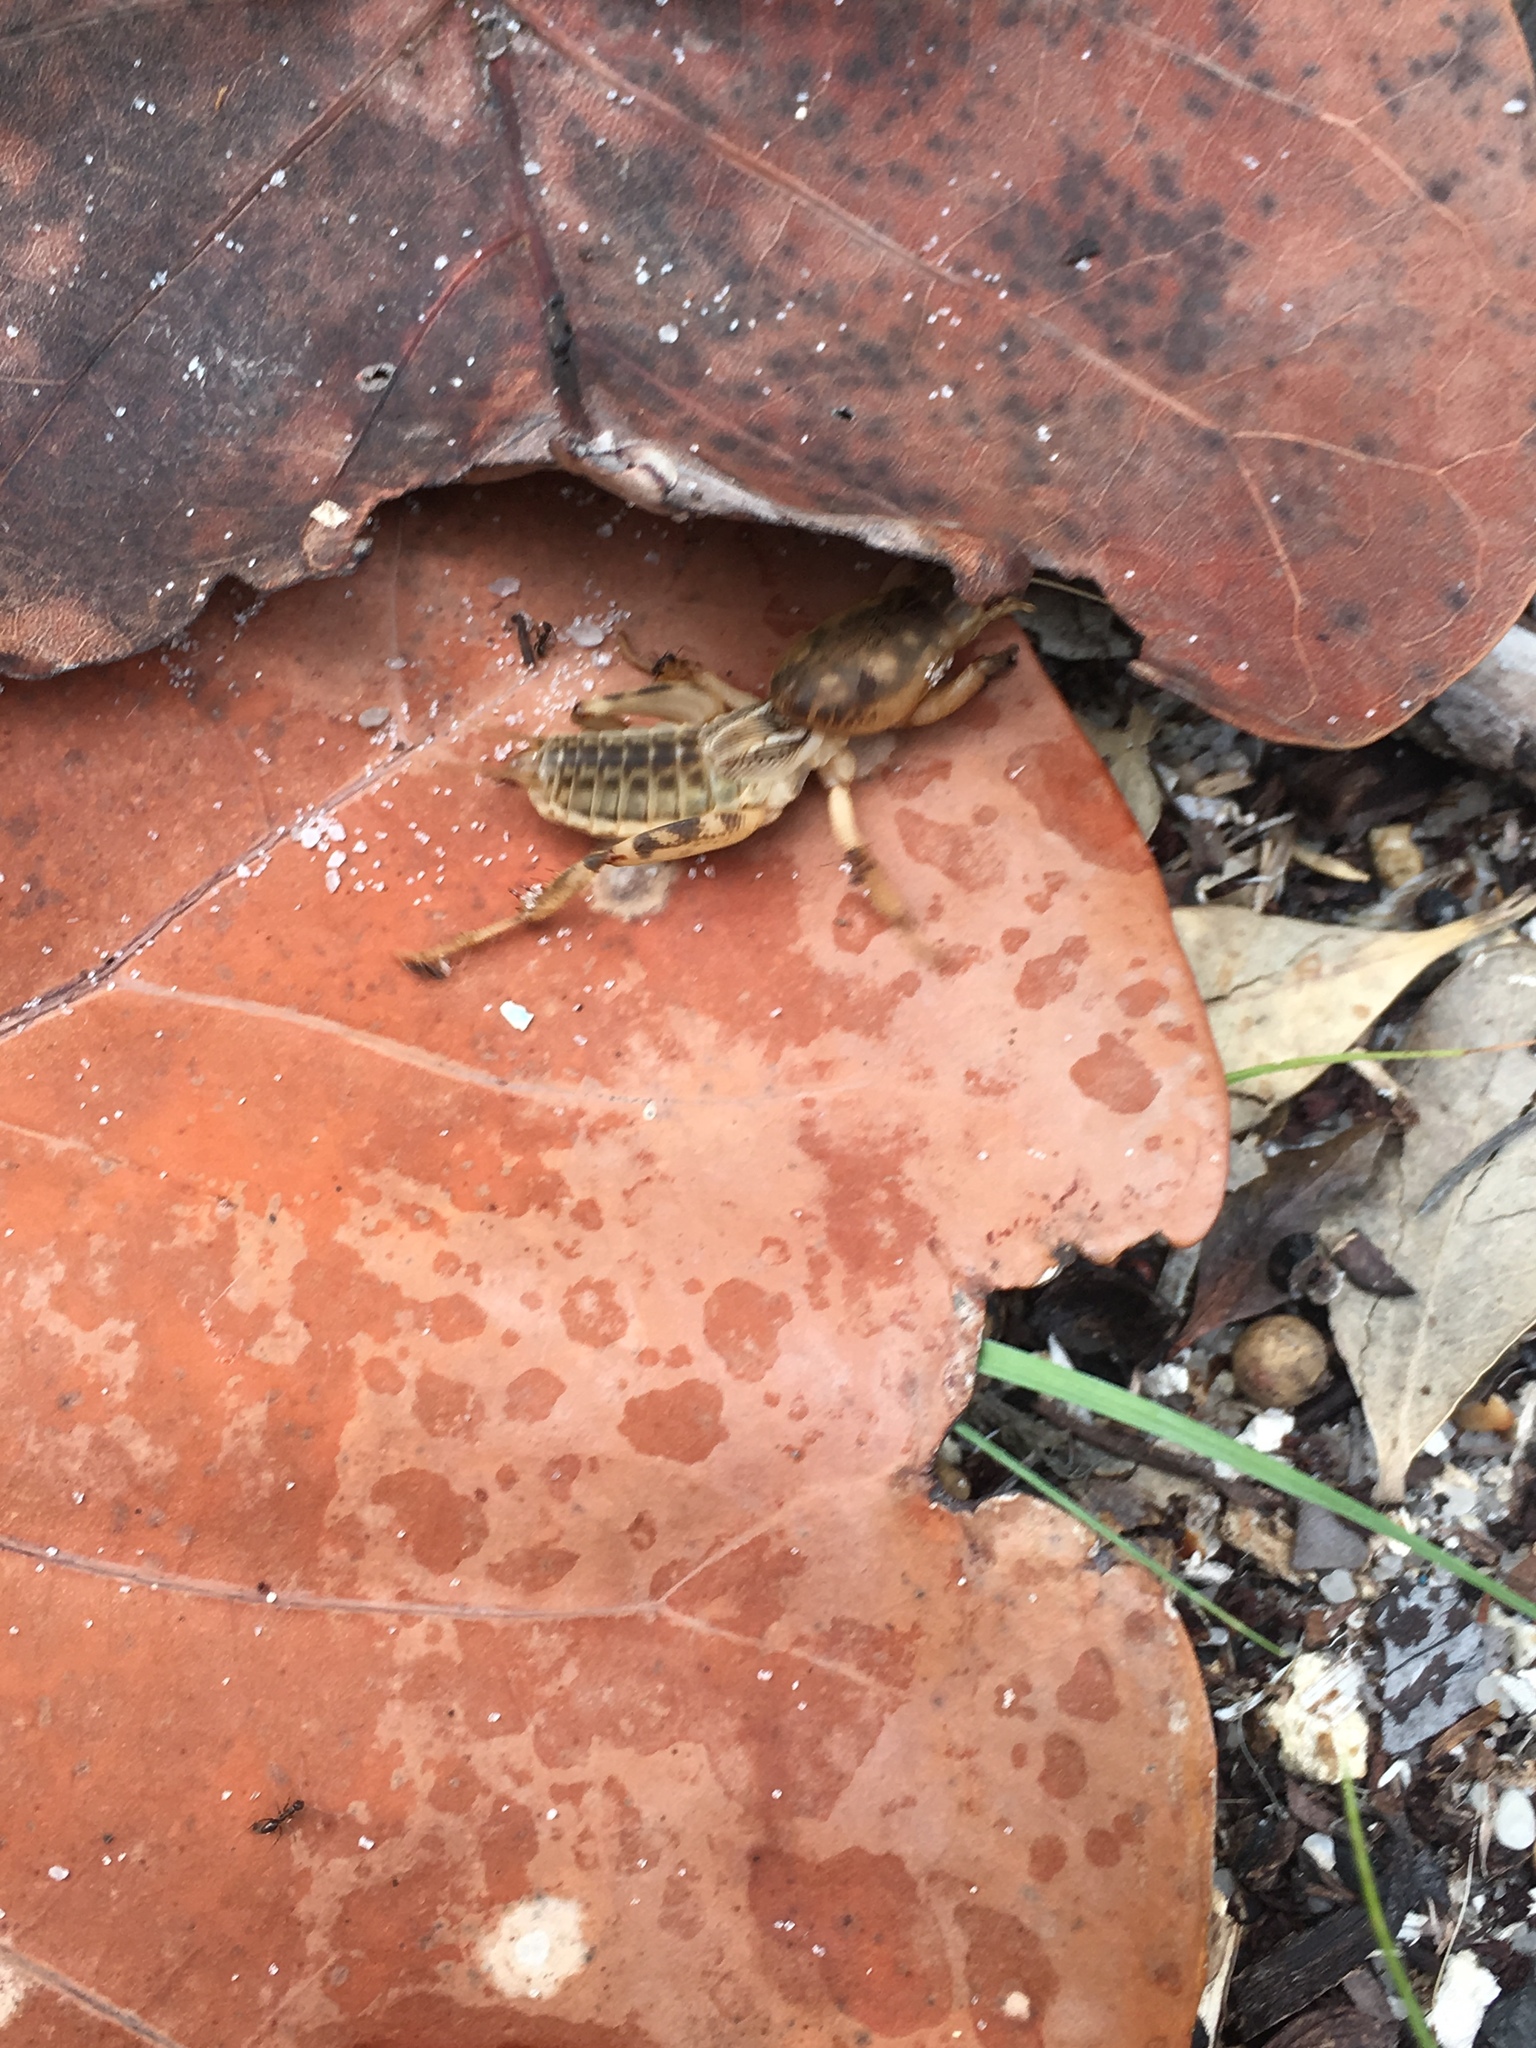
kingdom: Animalia
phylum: Arthropoda
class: Insecta
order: Orthoptera
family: Gryllotalpidae
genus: Neoscapteriscus
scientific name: Neoscapteriscus abbreviatus
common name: Short-winged mole cricket
